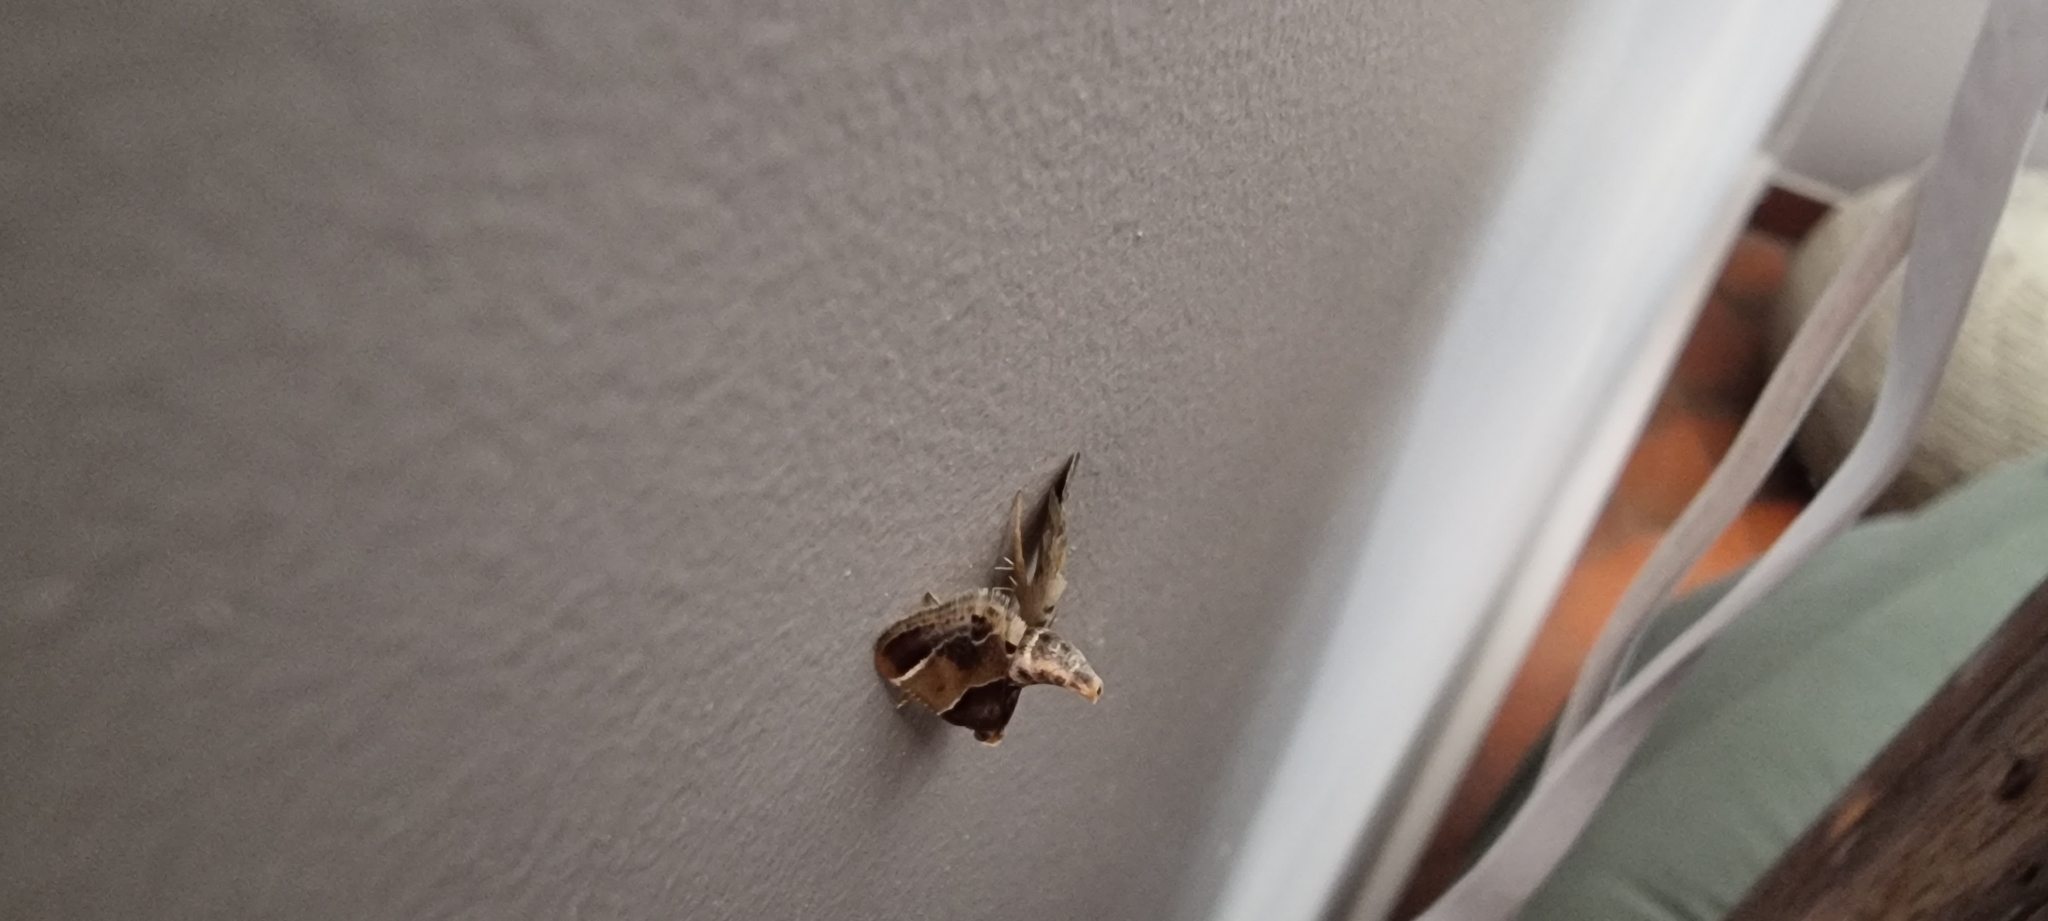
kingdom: Animalia
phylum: Arthropoda
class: Insecta
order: Lepidoptera
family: Pyralidae
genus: Pyralis
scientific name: Pyralis farinalis
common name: Meal moth
